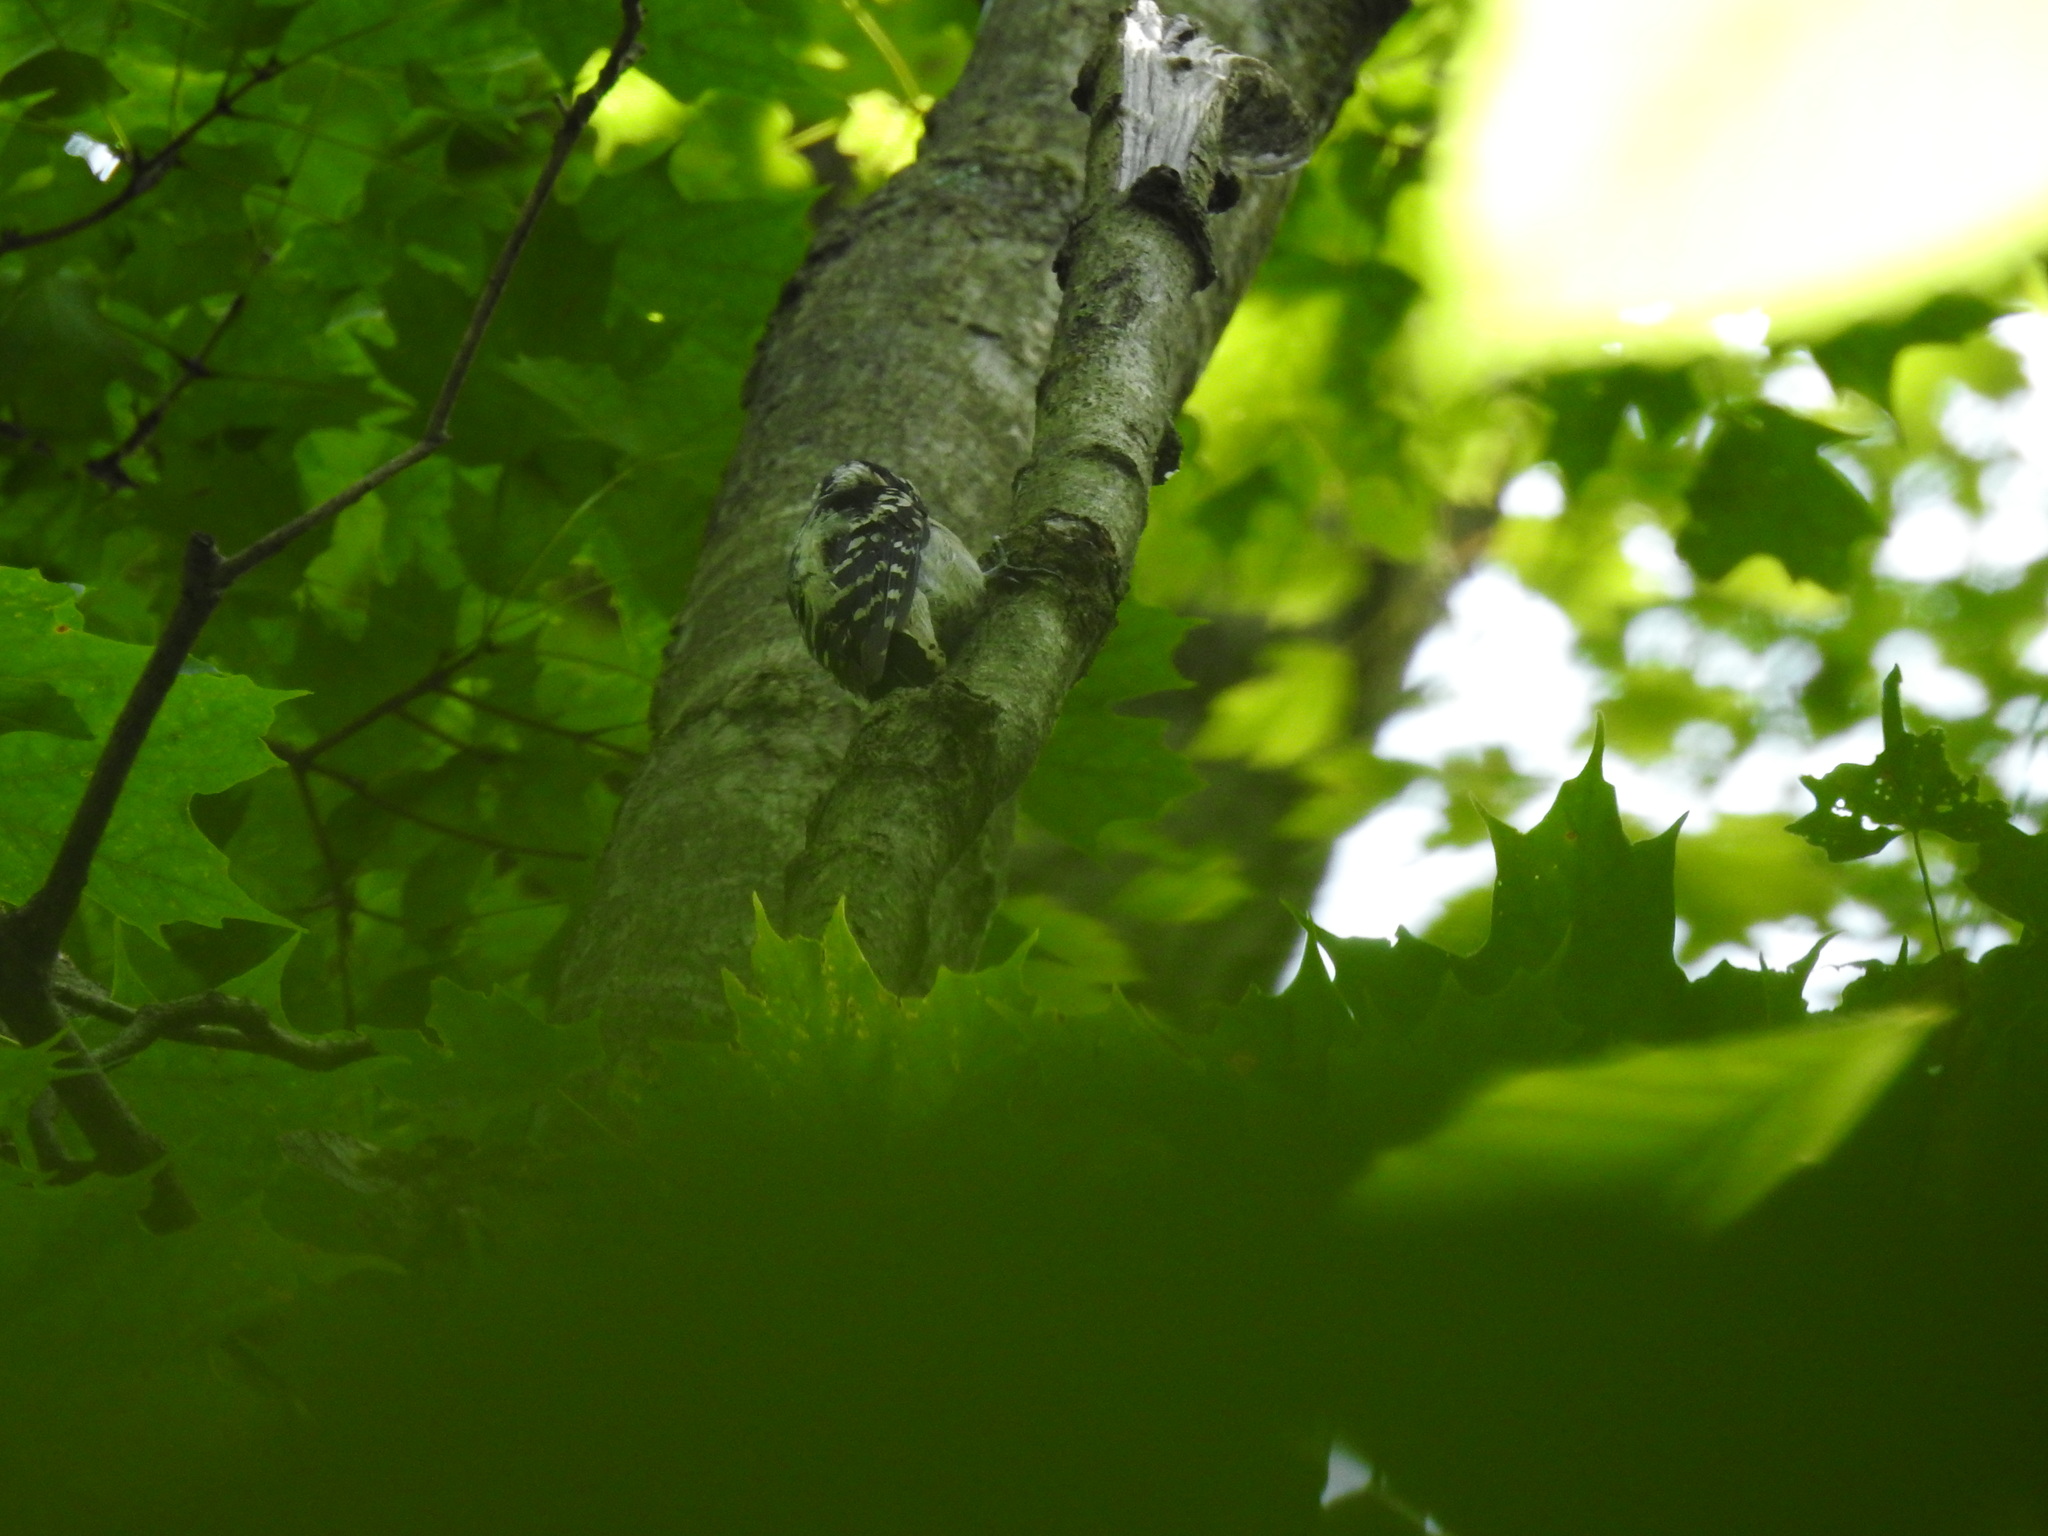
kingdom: Animalia
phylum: Chordata
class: Aves
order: Piciformes
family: Picidae
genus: Dryobates
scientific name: Dryobates pubescens
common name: Downy woodpecker
